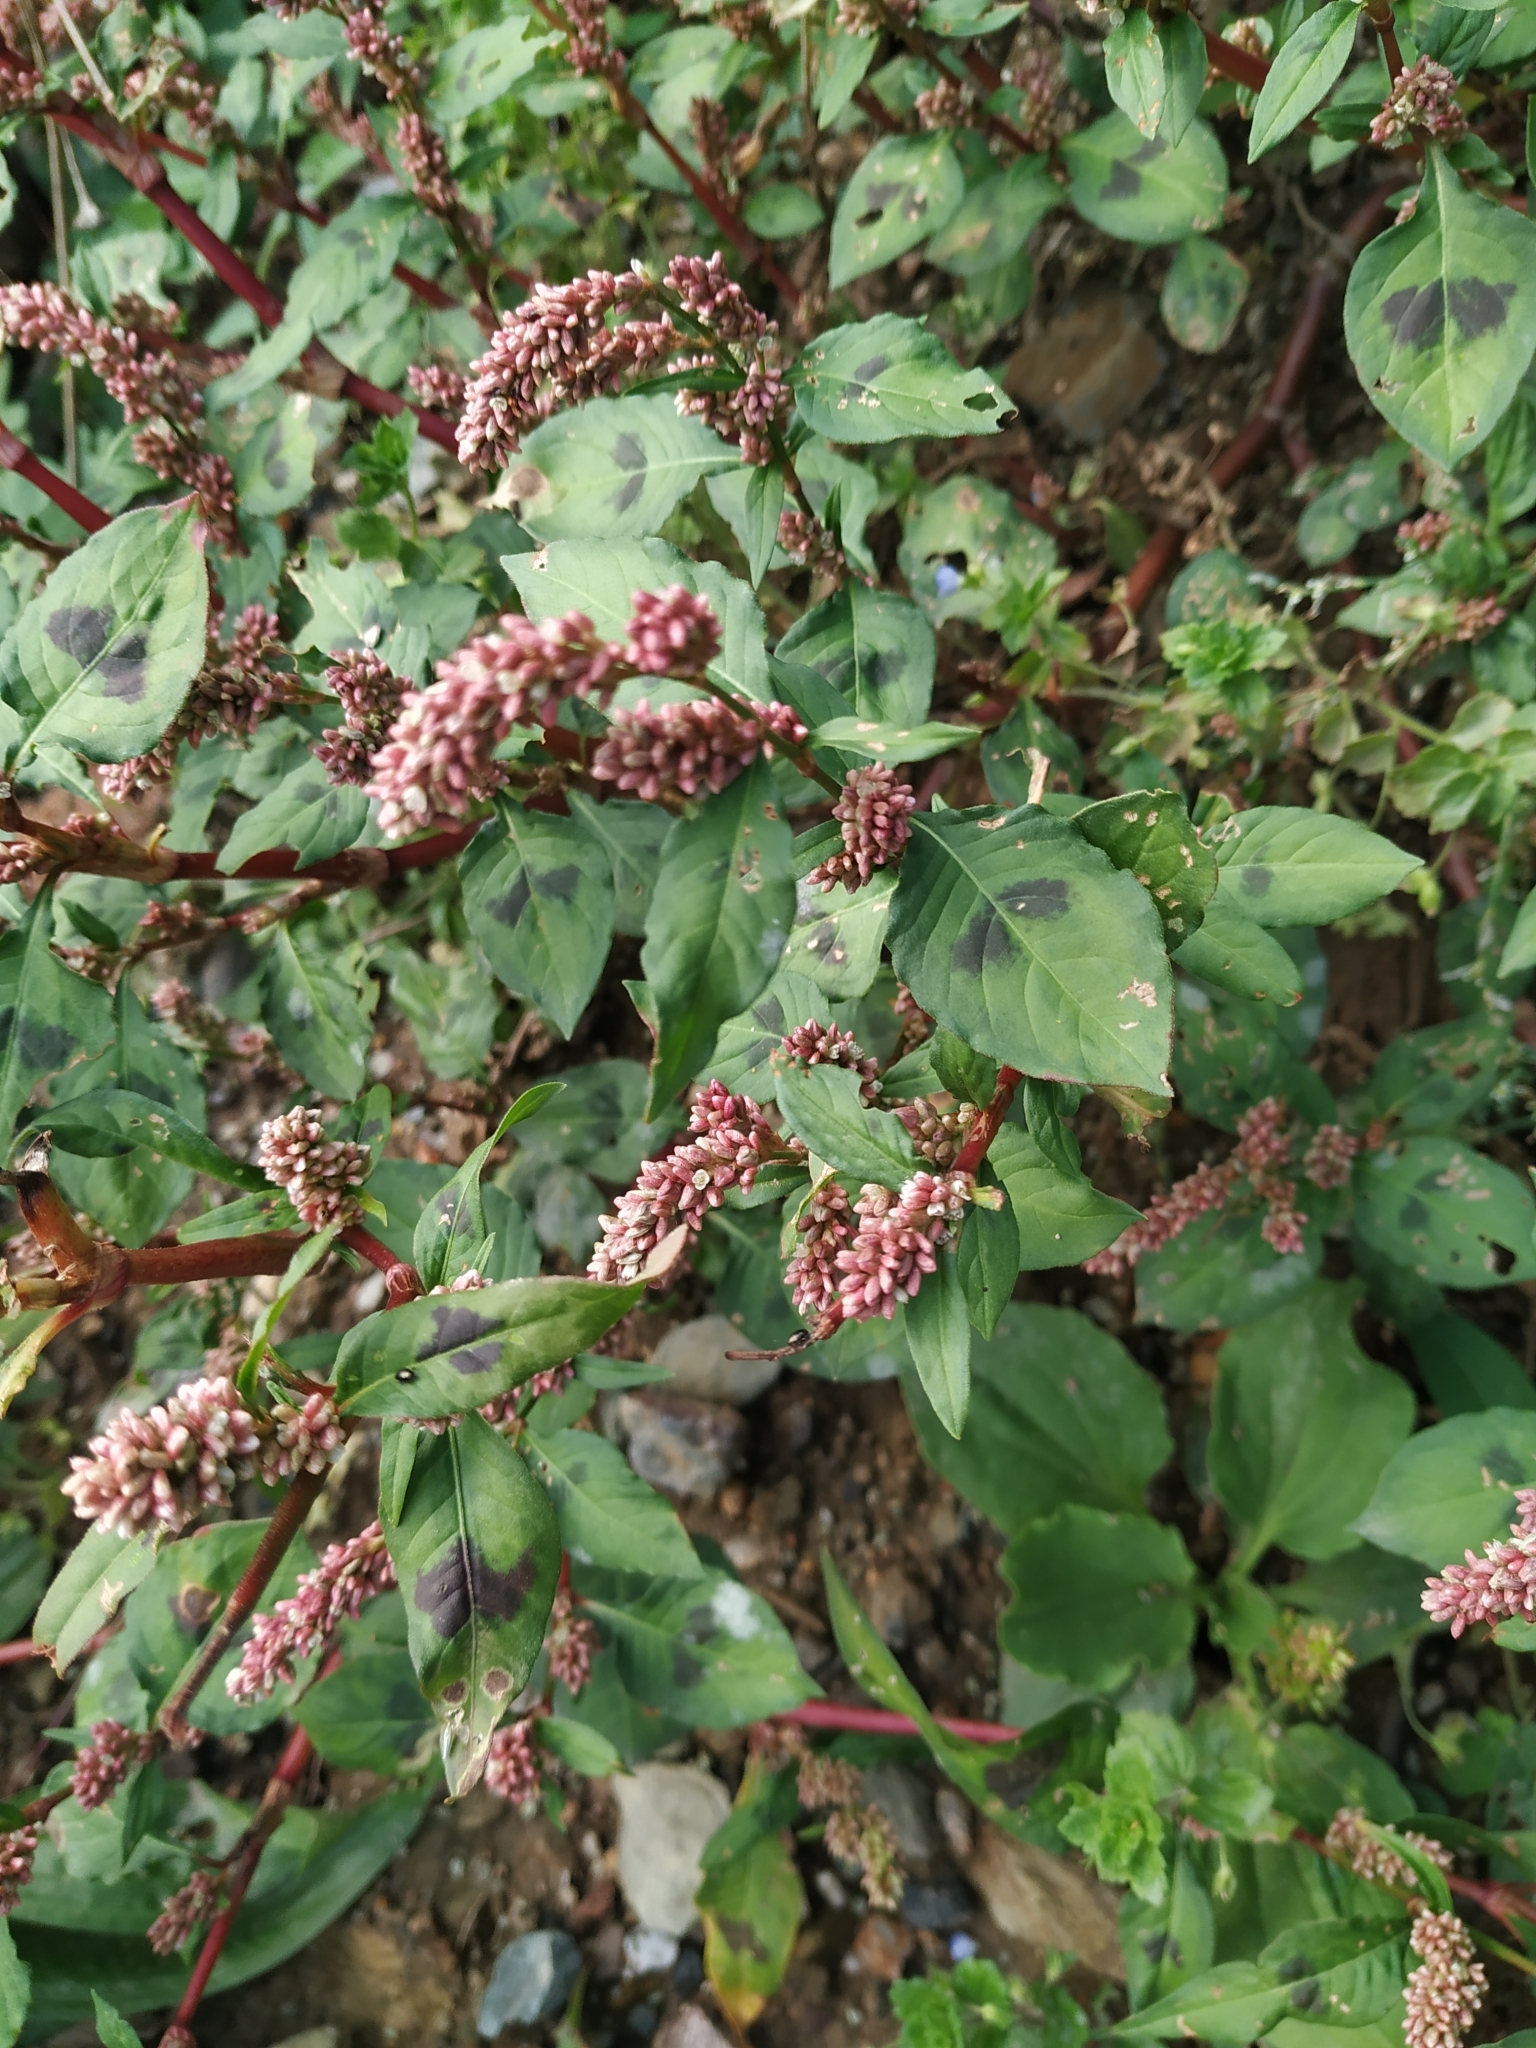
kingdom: Plantae
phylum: Tracheophyta
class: Magnoliopsida
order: Caryophyllales
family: Polygonaceae
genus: Persicaria
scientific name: Persicaria maculosa
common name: Redshank
